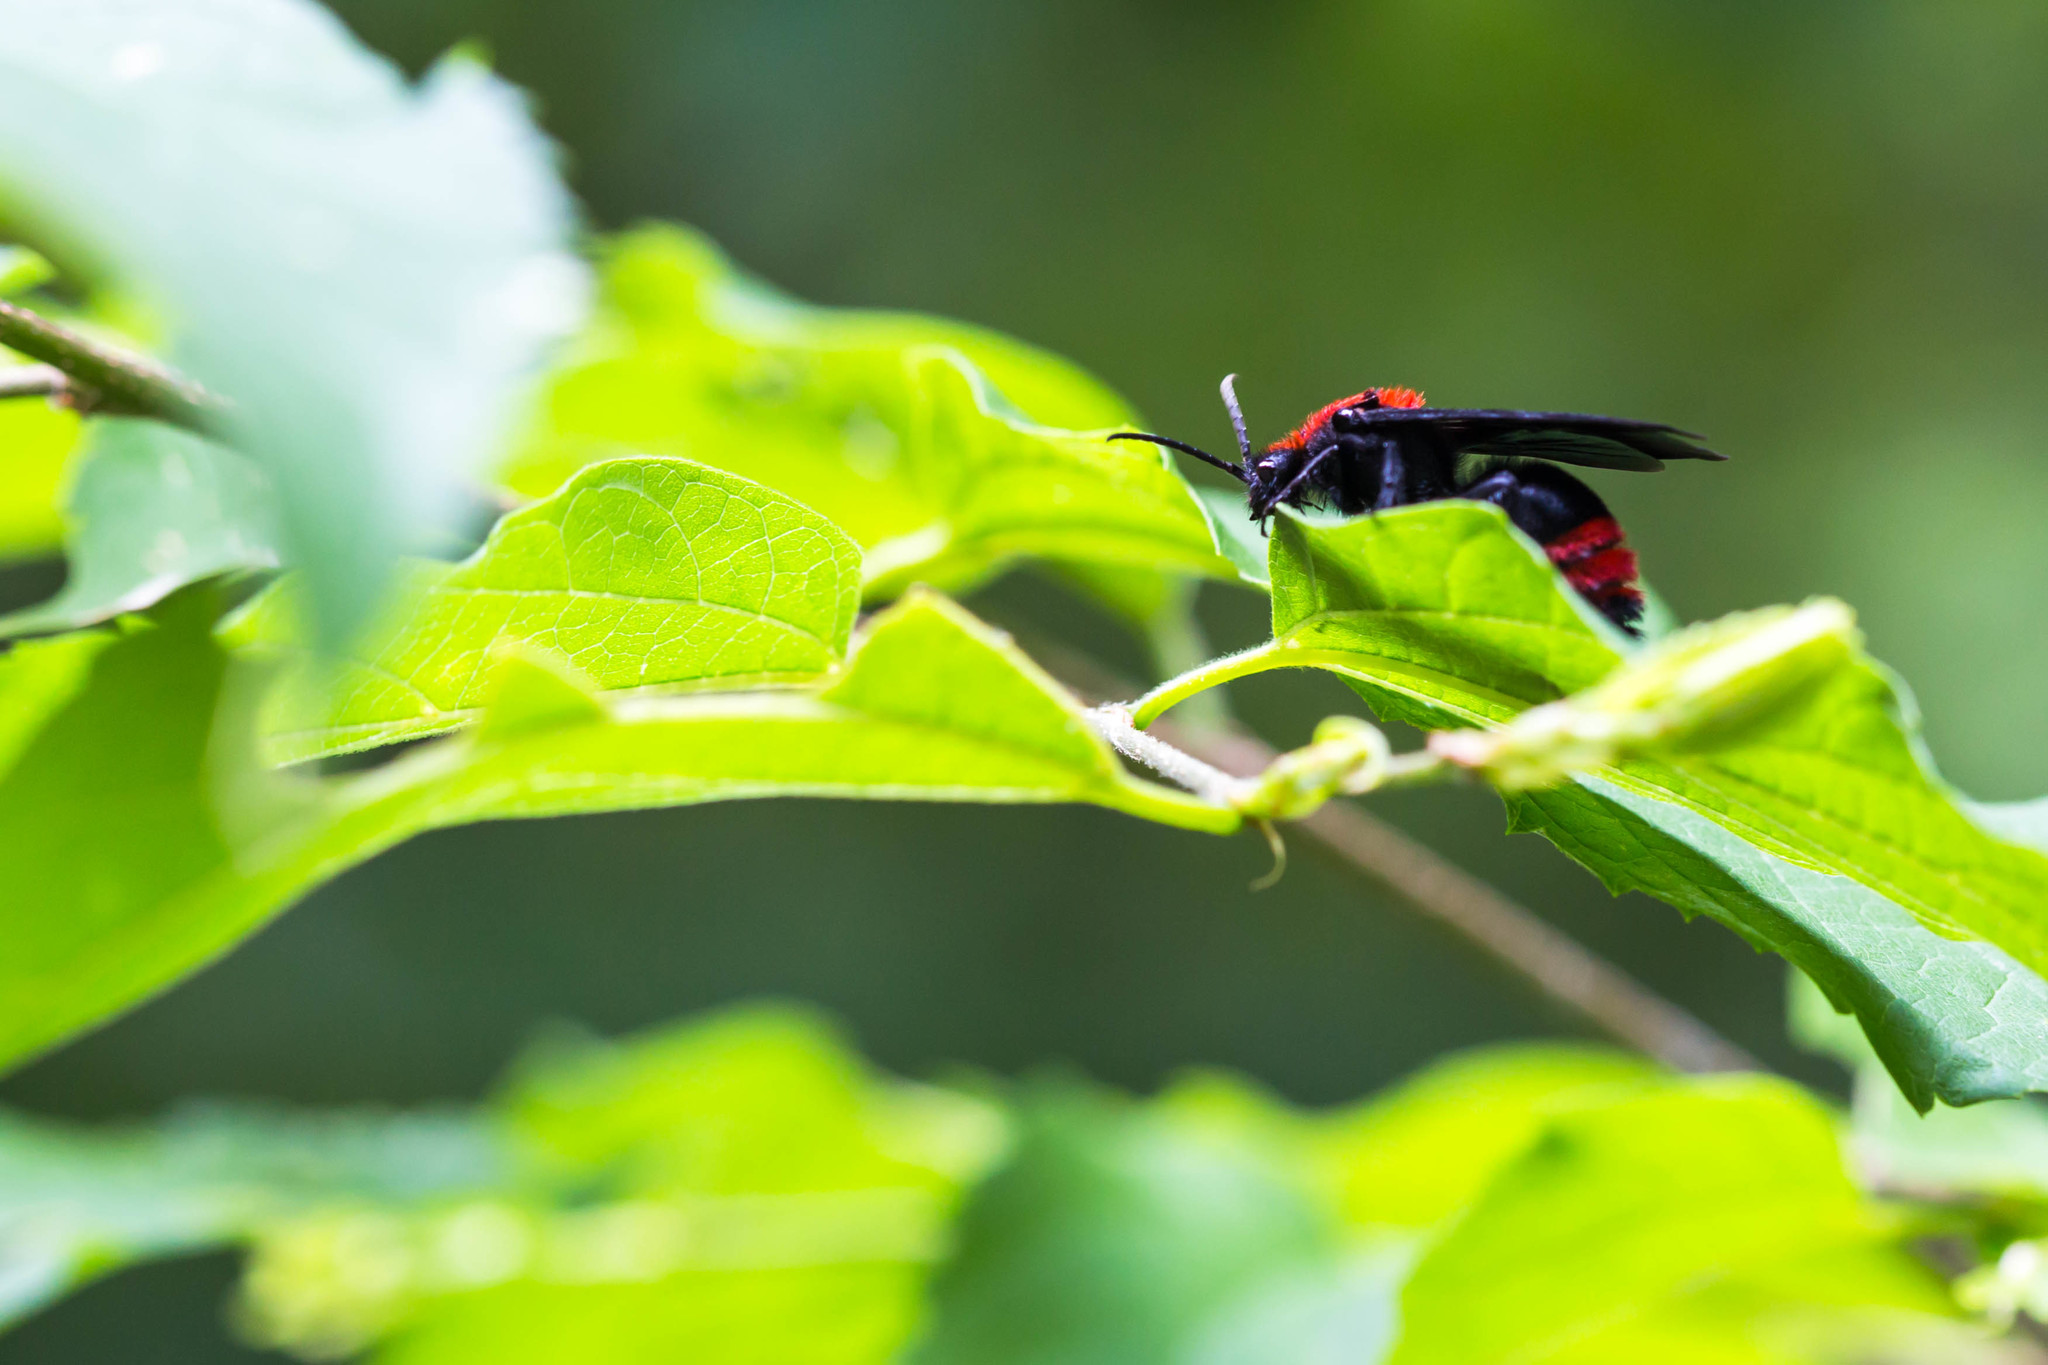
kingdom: Animalia
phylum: Arthropoda
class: Insecta
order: Hymenoptera
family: Mutillidae
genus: Dasymutilla
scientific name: Dasymutilla occidentalis
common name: Common eastern velvet ant
